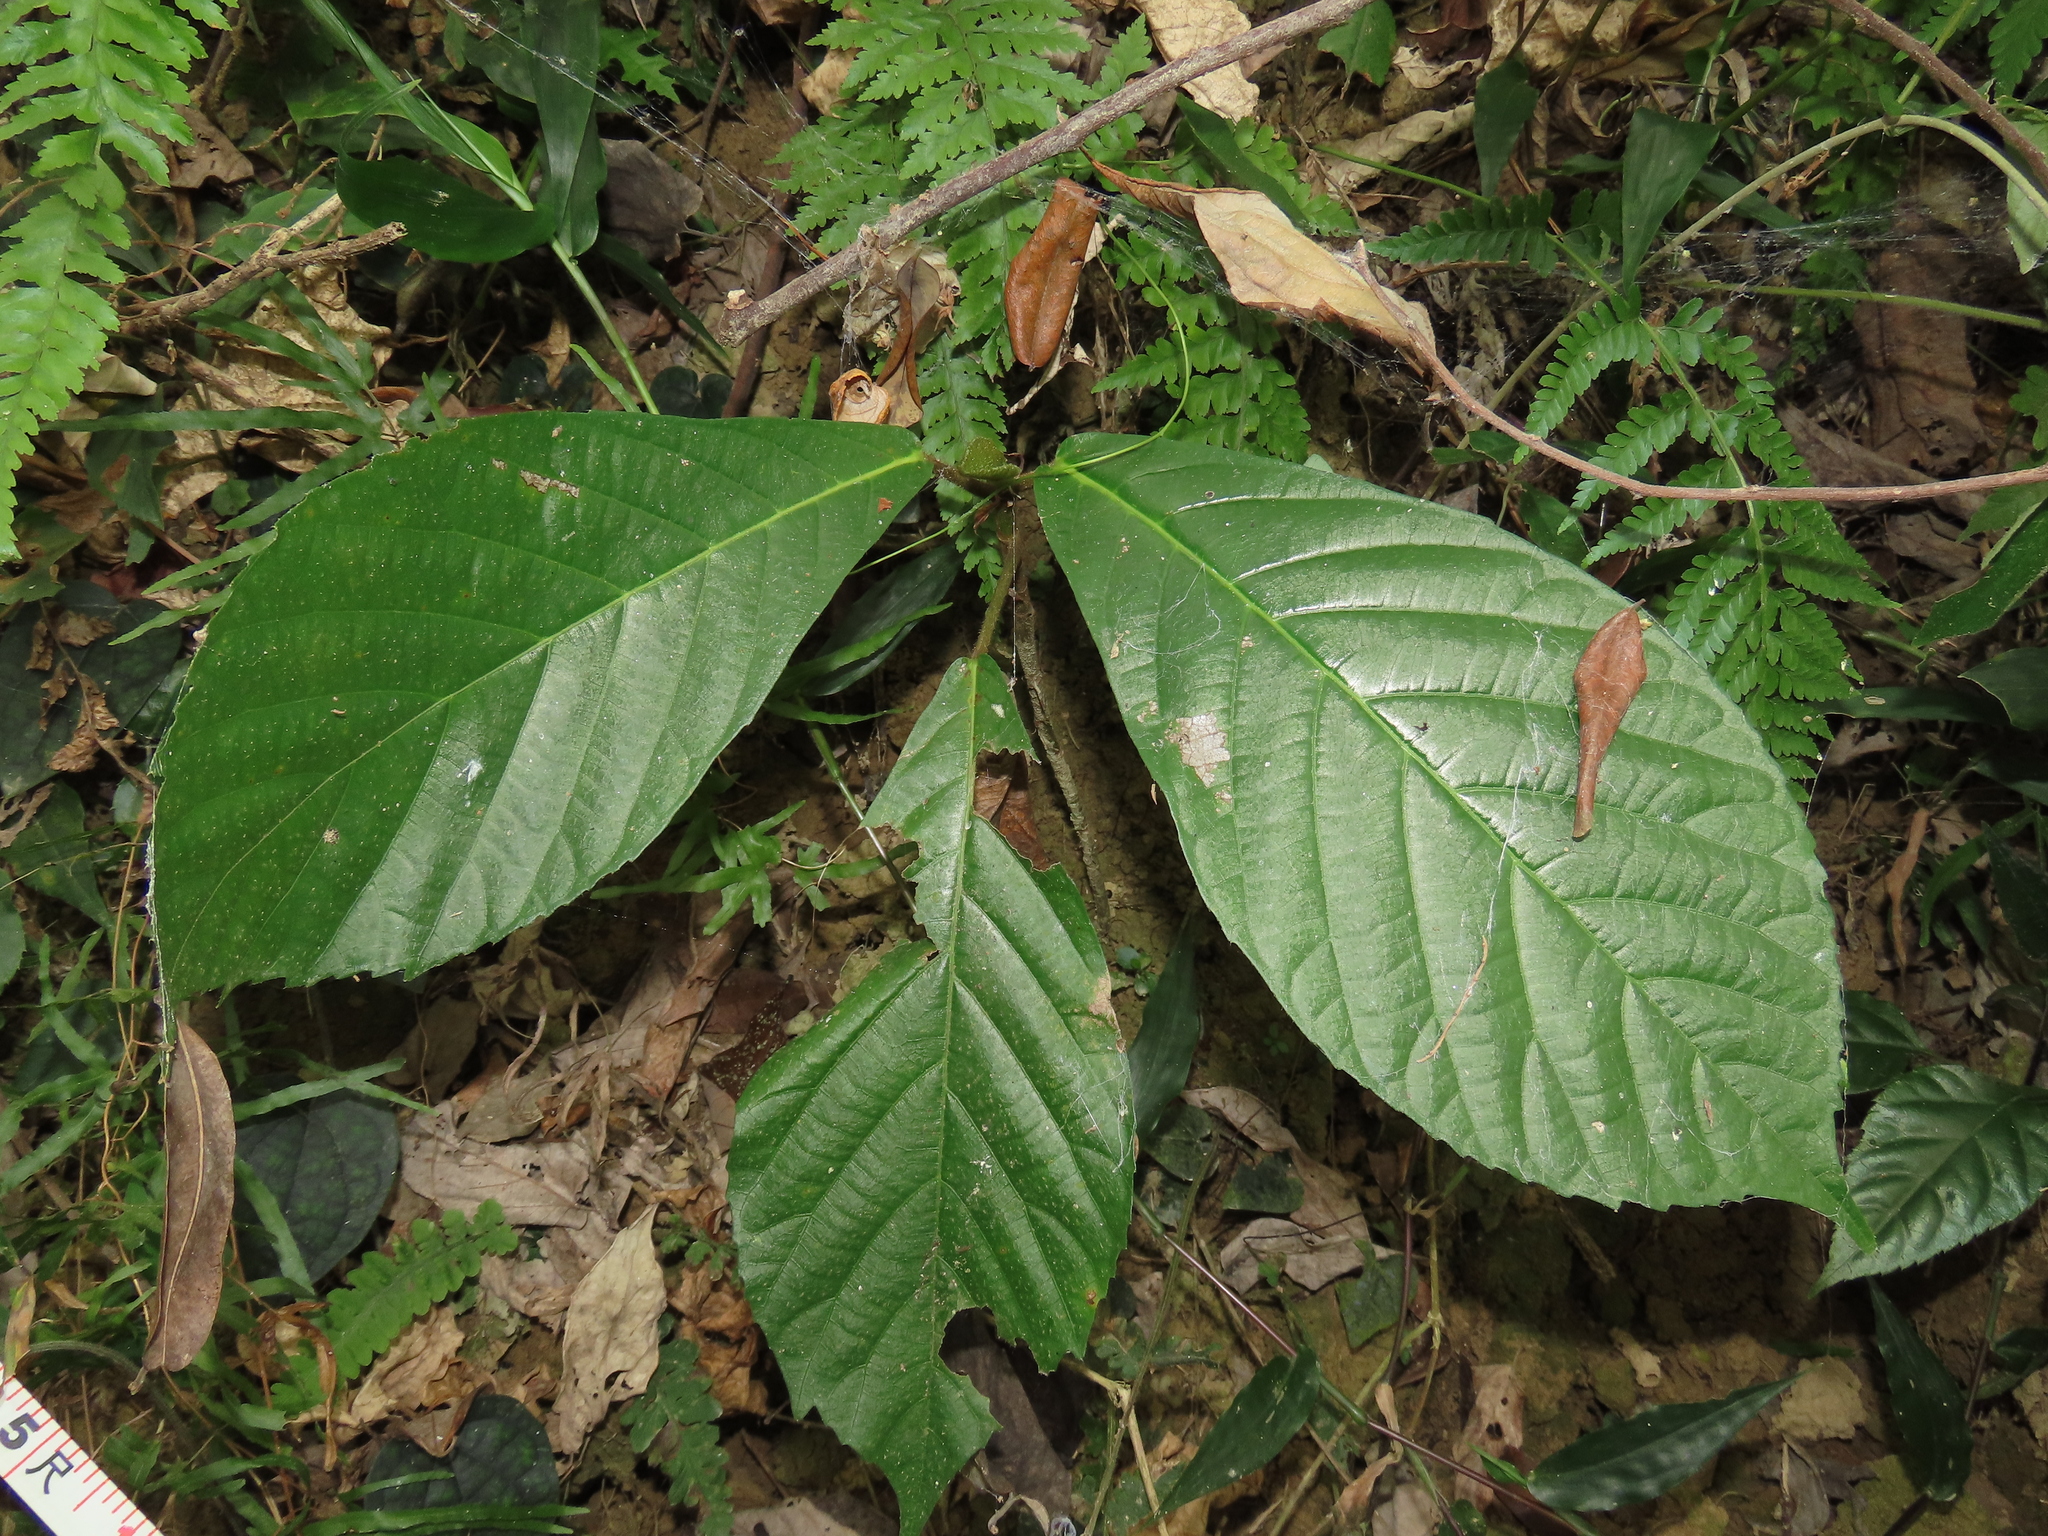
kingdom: Plantae
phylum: Tracheophyta
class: Magnoliopsida
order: Ericales
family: Actinidiaceae
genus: Saurauia
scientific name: Saurauia tristyla
